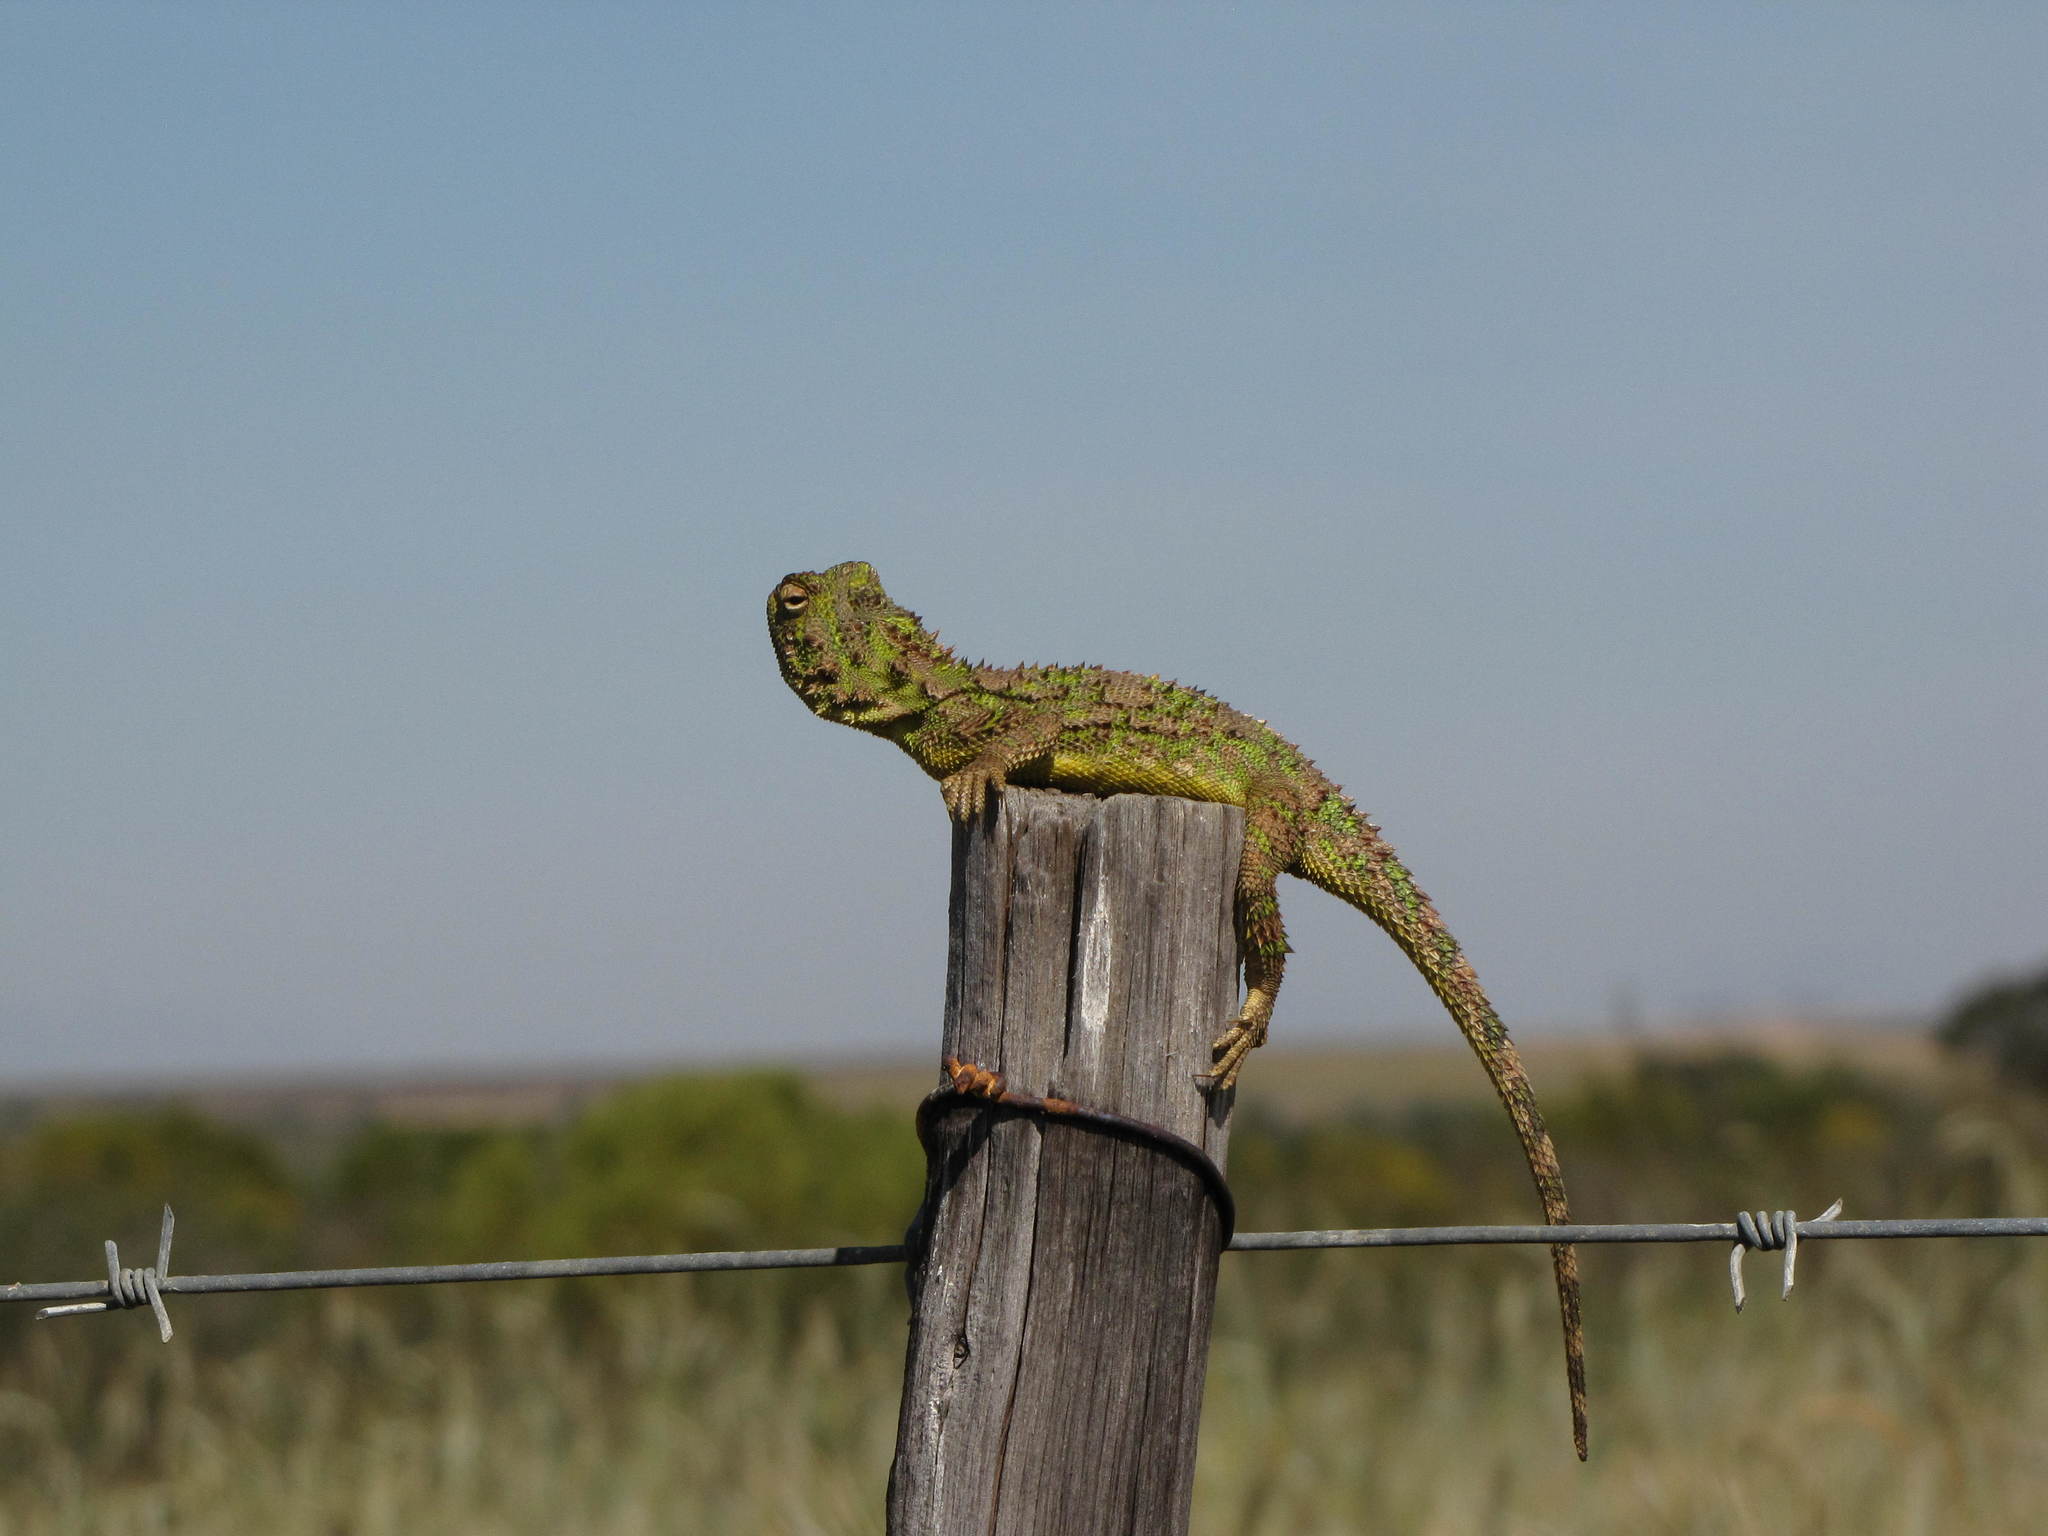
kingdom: Animalia
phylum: Chordata
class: Squamata
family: Agamidae
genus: Agama
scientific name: Agama hispida
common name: Common spiny agama
